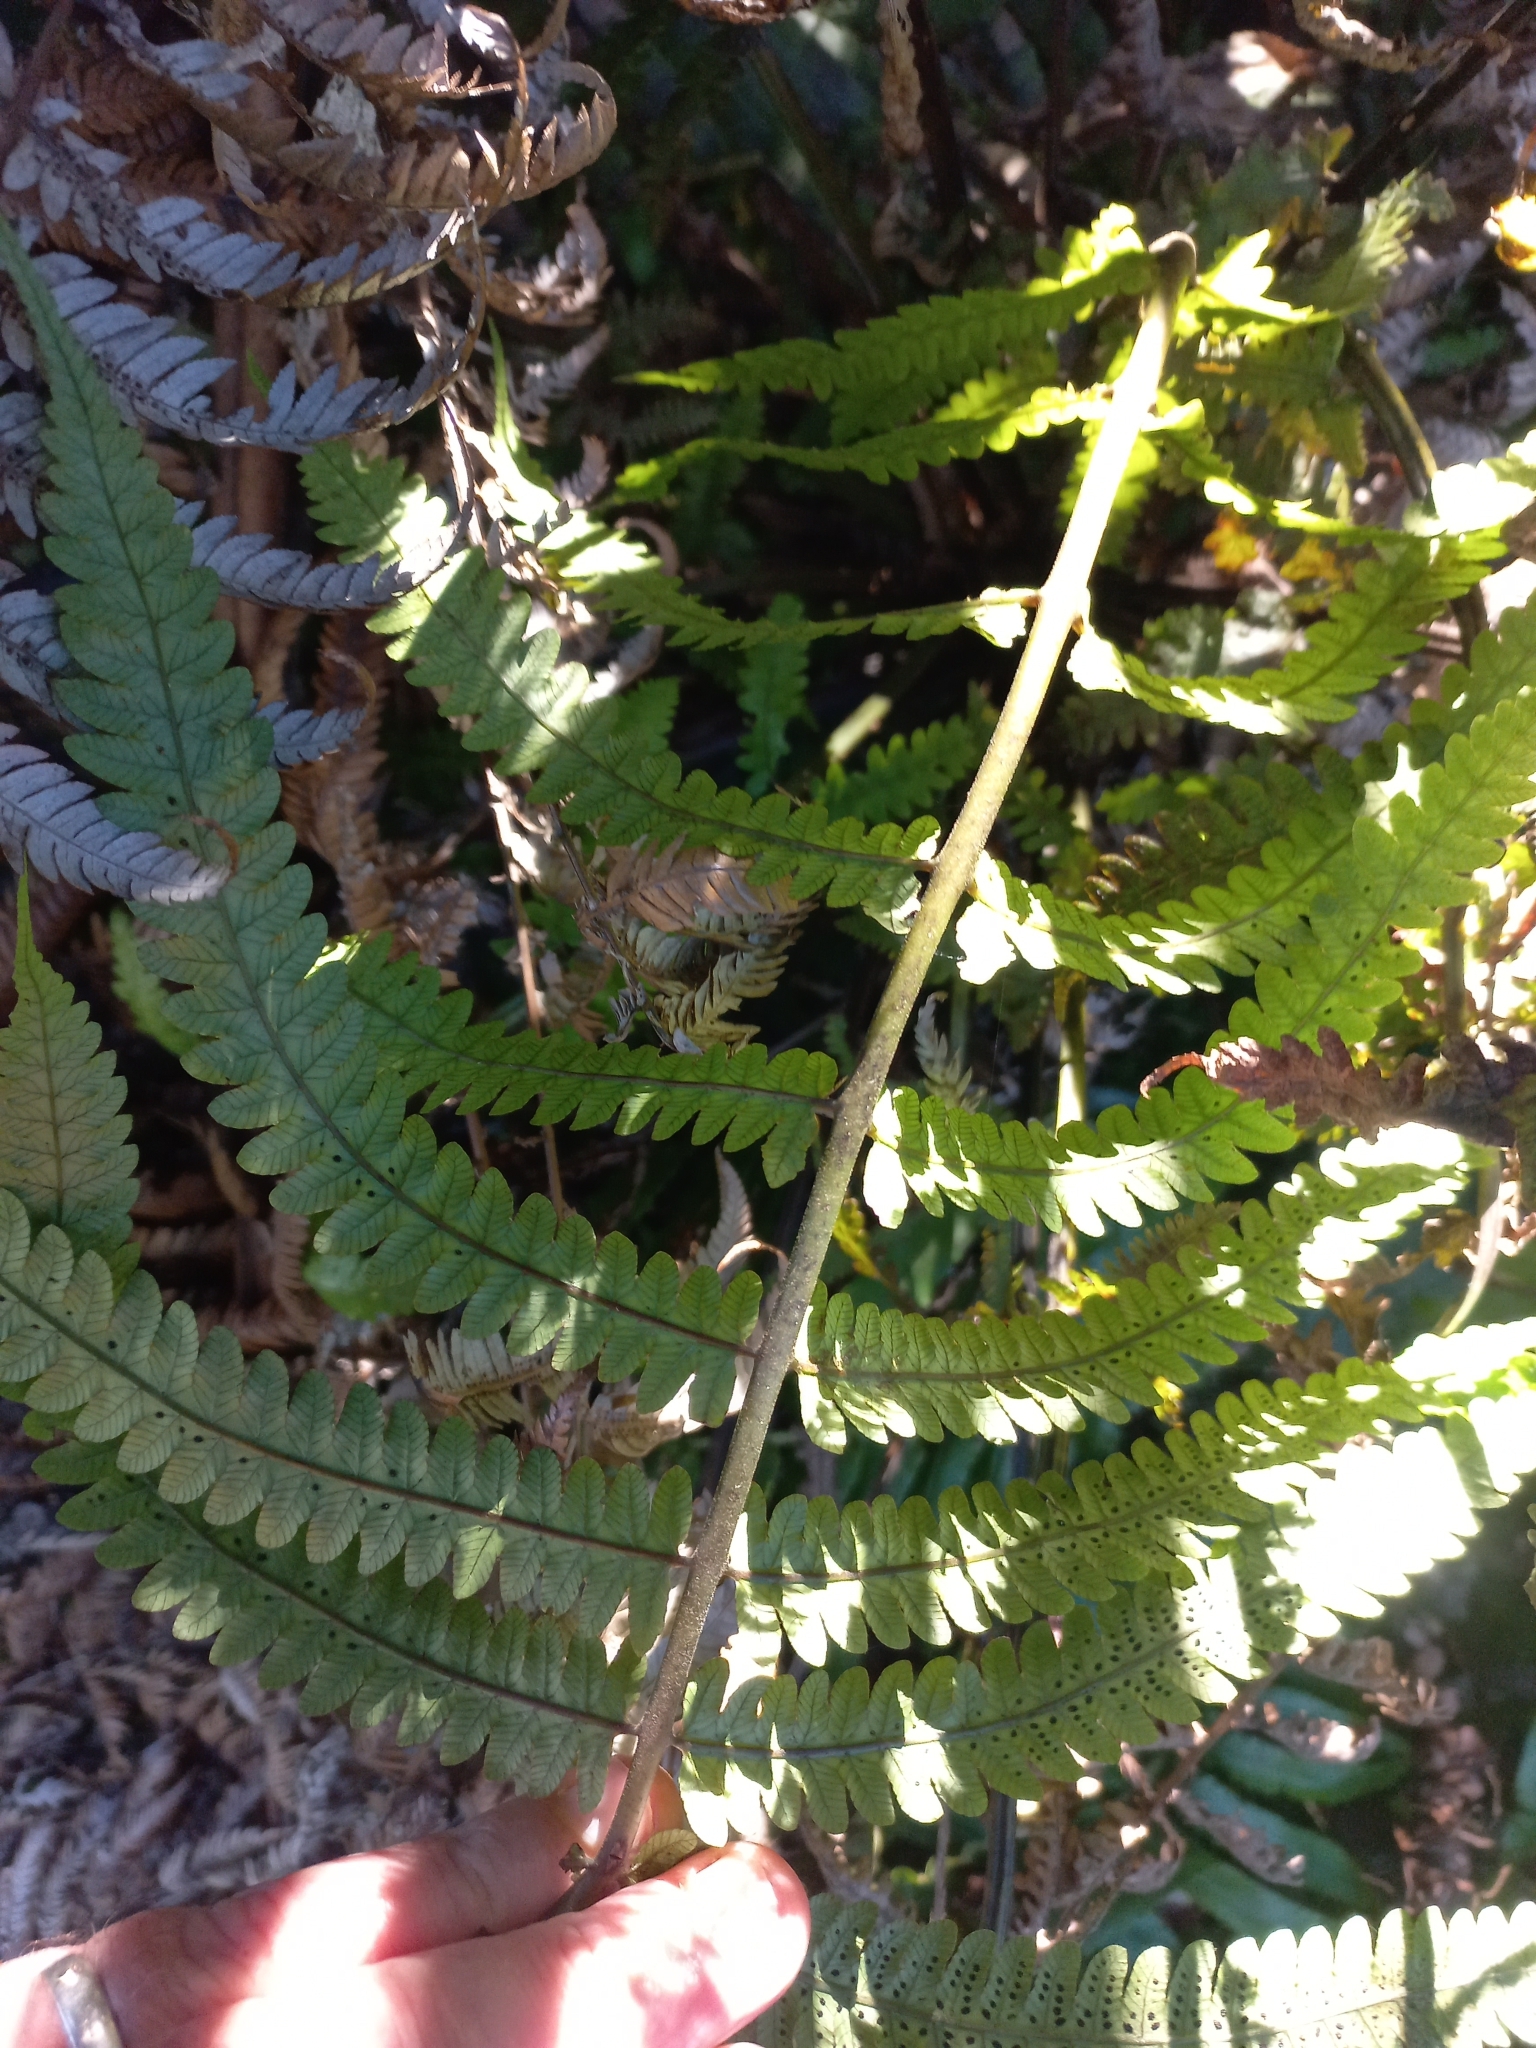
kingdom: Plantae
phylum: Tracheophyta
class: Polypodiopsida
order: Polypodiales
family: Thelypteridaceae
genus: Pakau
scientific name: Pakau pennigera
